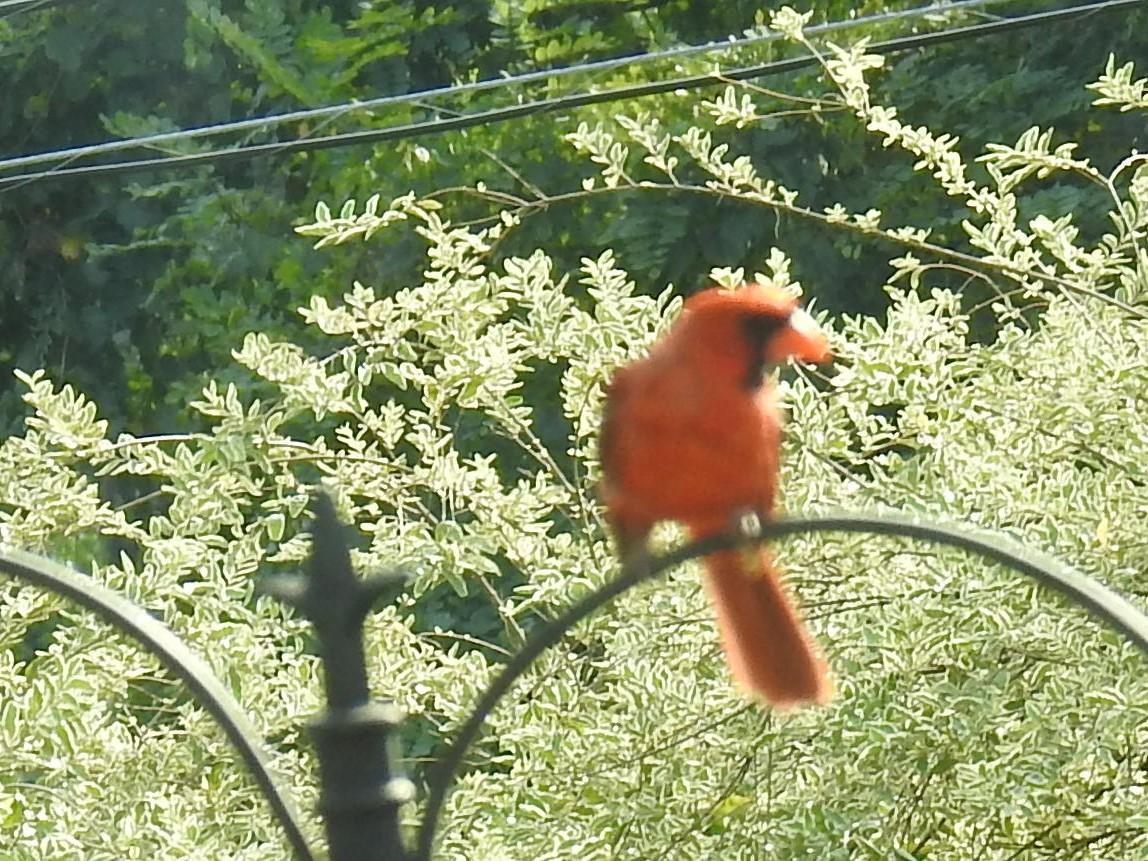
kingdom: Animalia
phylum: Chordata
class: Aves
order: Passeriformes
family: Cardinalidae
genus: Cardinalis
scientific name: Cardinalis cardinalis
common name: Northern cardinal
